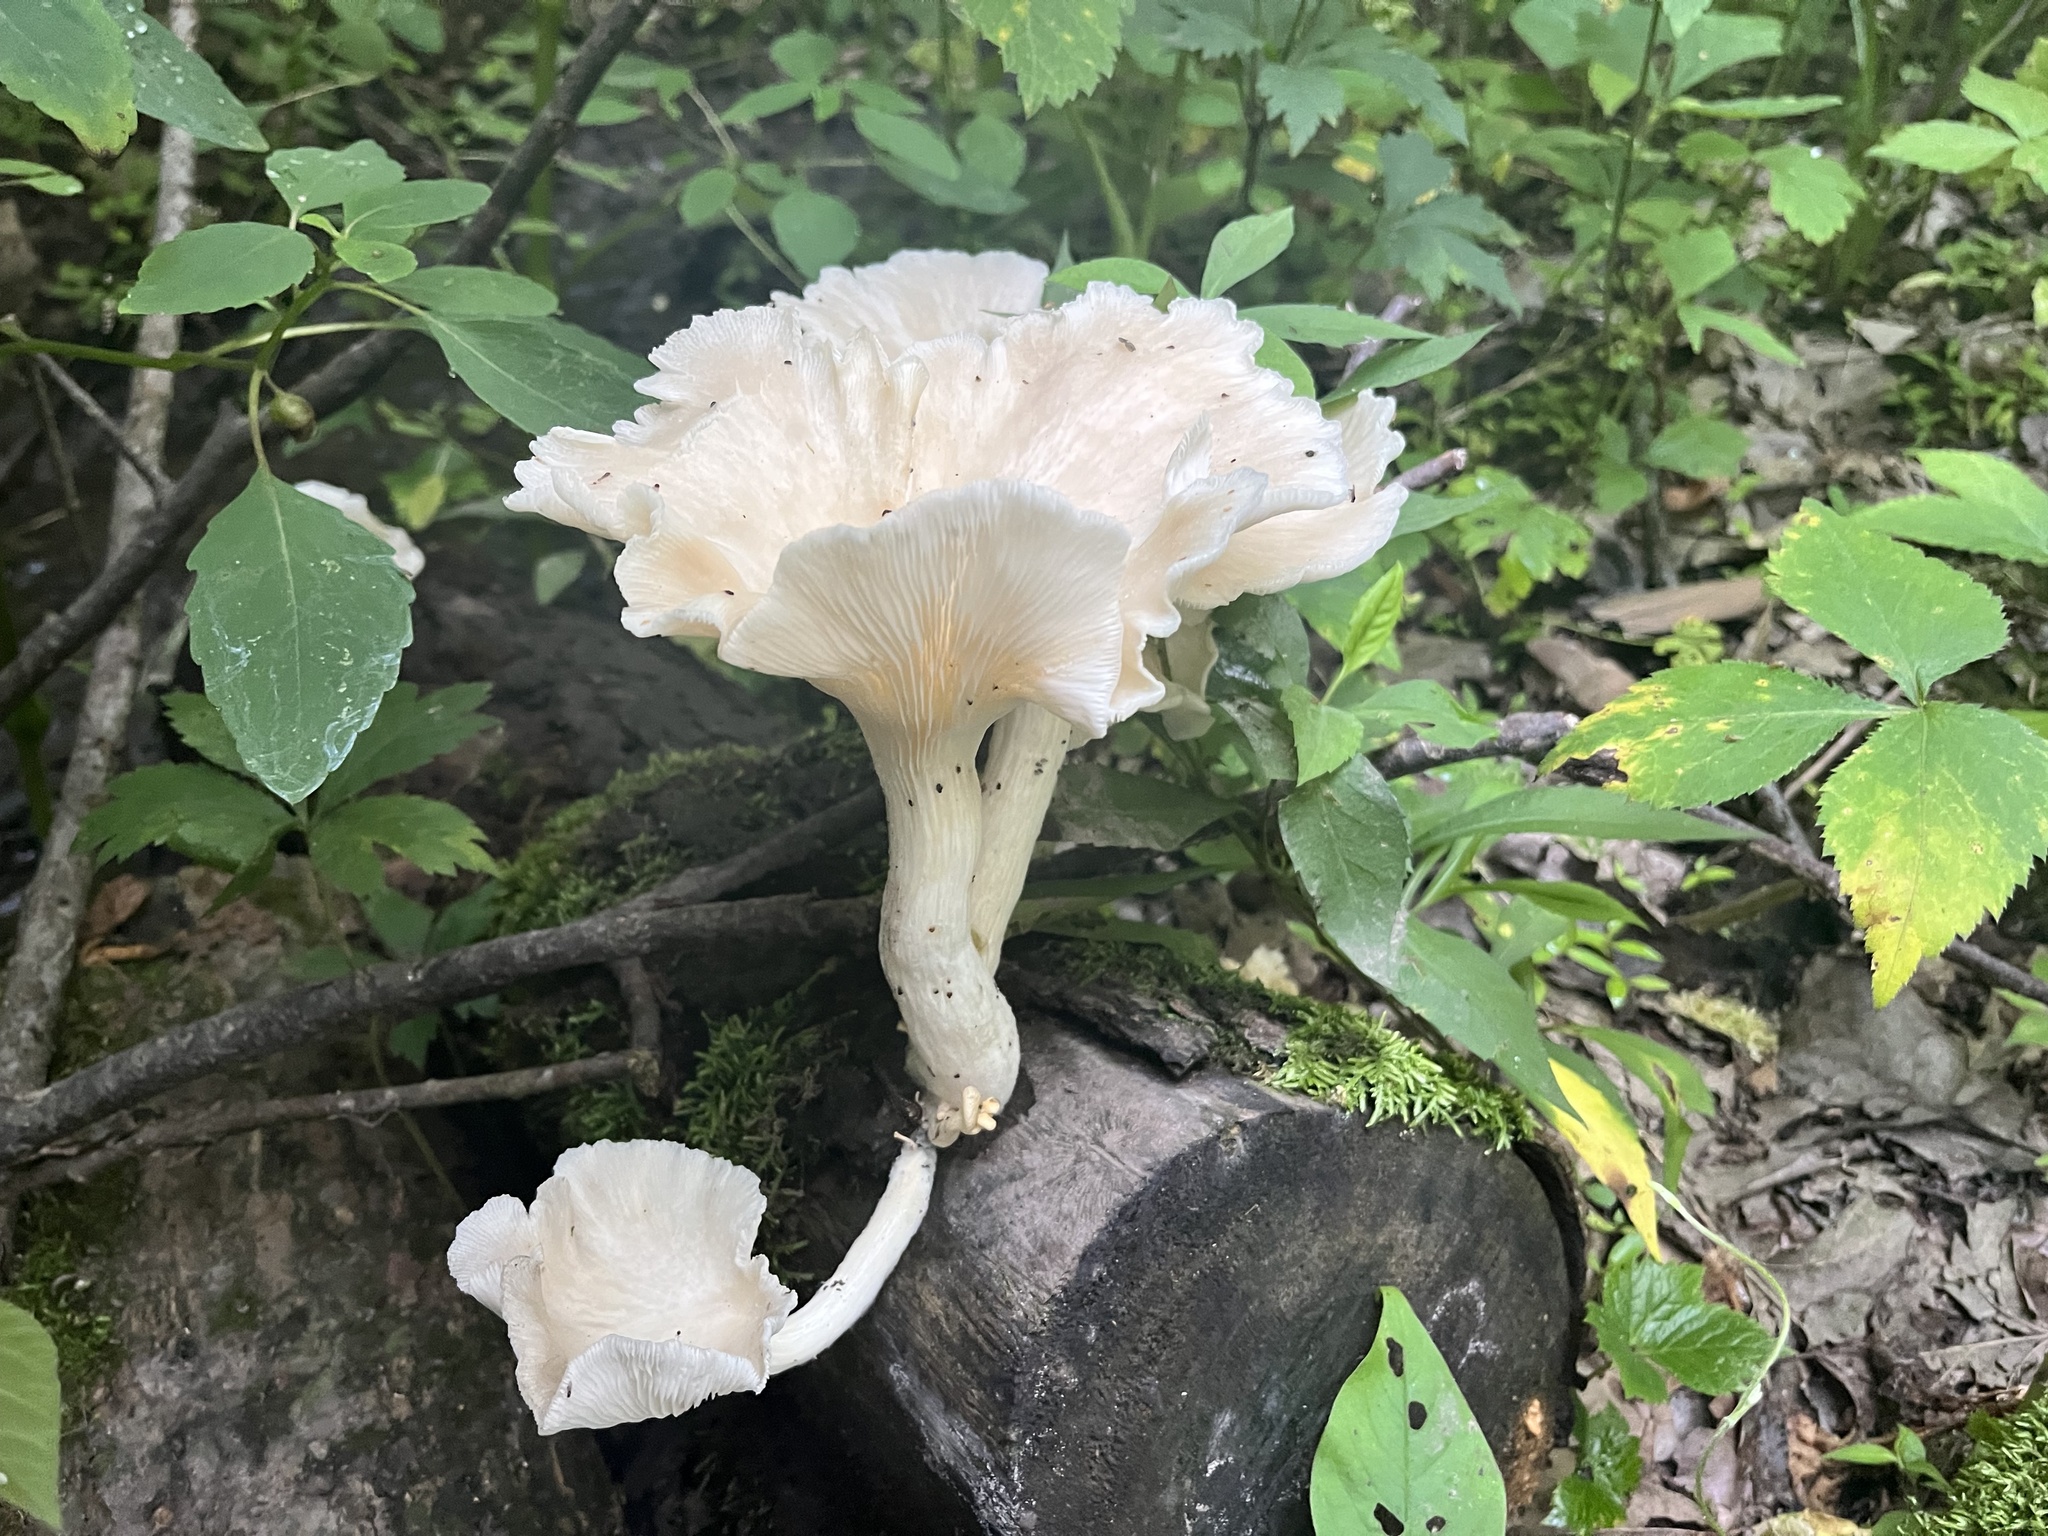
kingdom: Fungi
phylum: Basidiomycota
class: Agaricomycetes
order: Agaricales
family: Pleurotaceae
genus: Pleurotus
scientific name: Pleurotus pulmonarius
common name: Pale oyster
